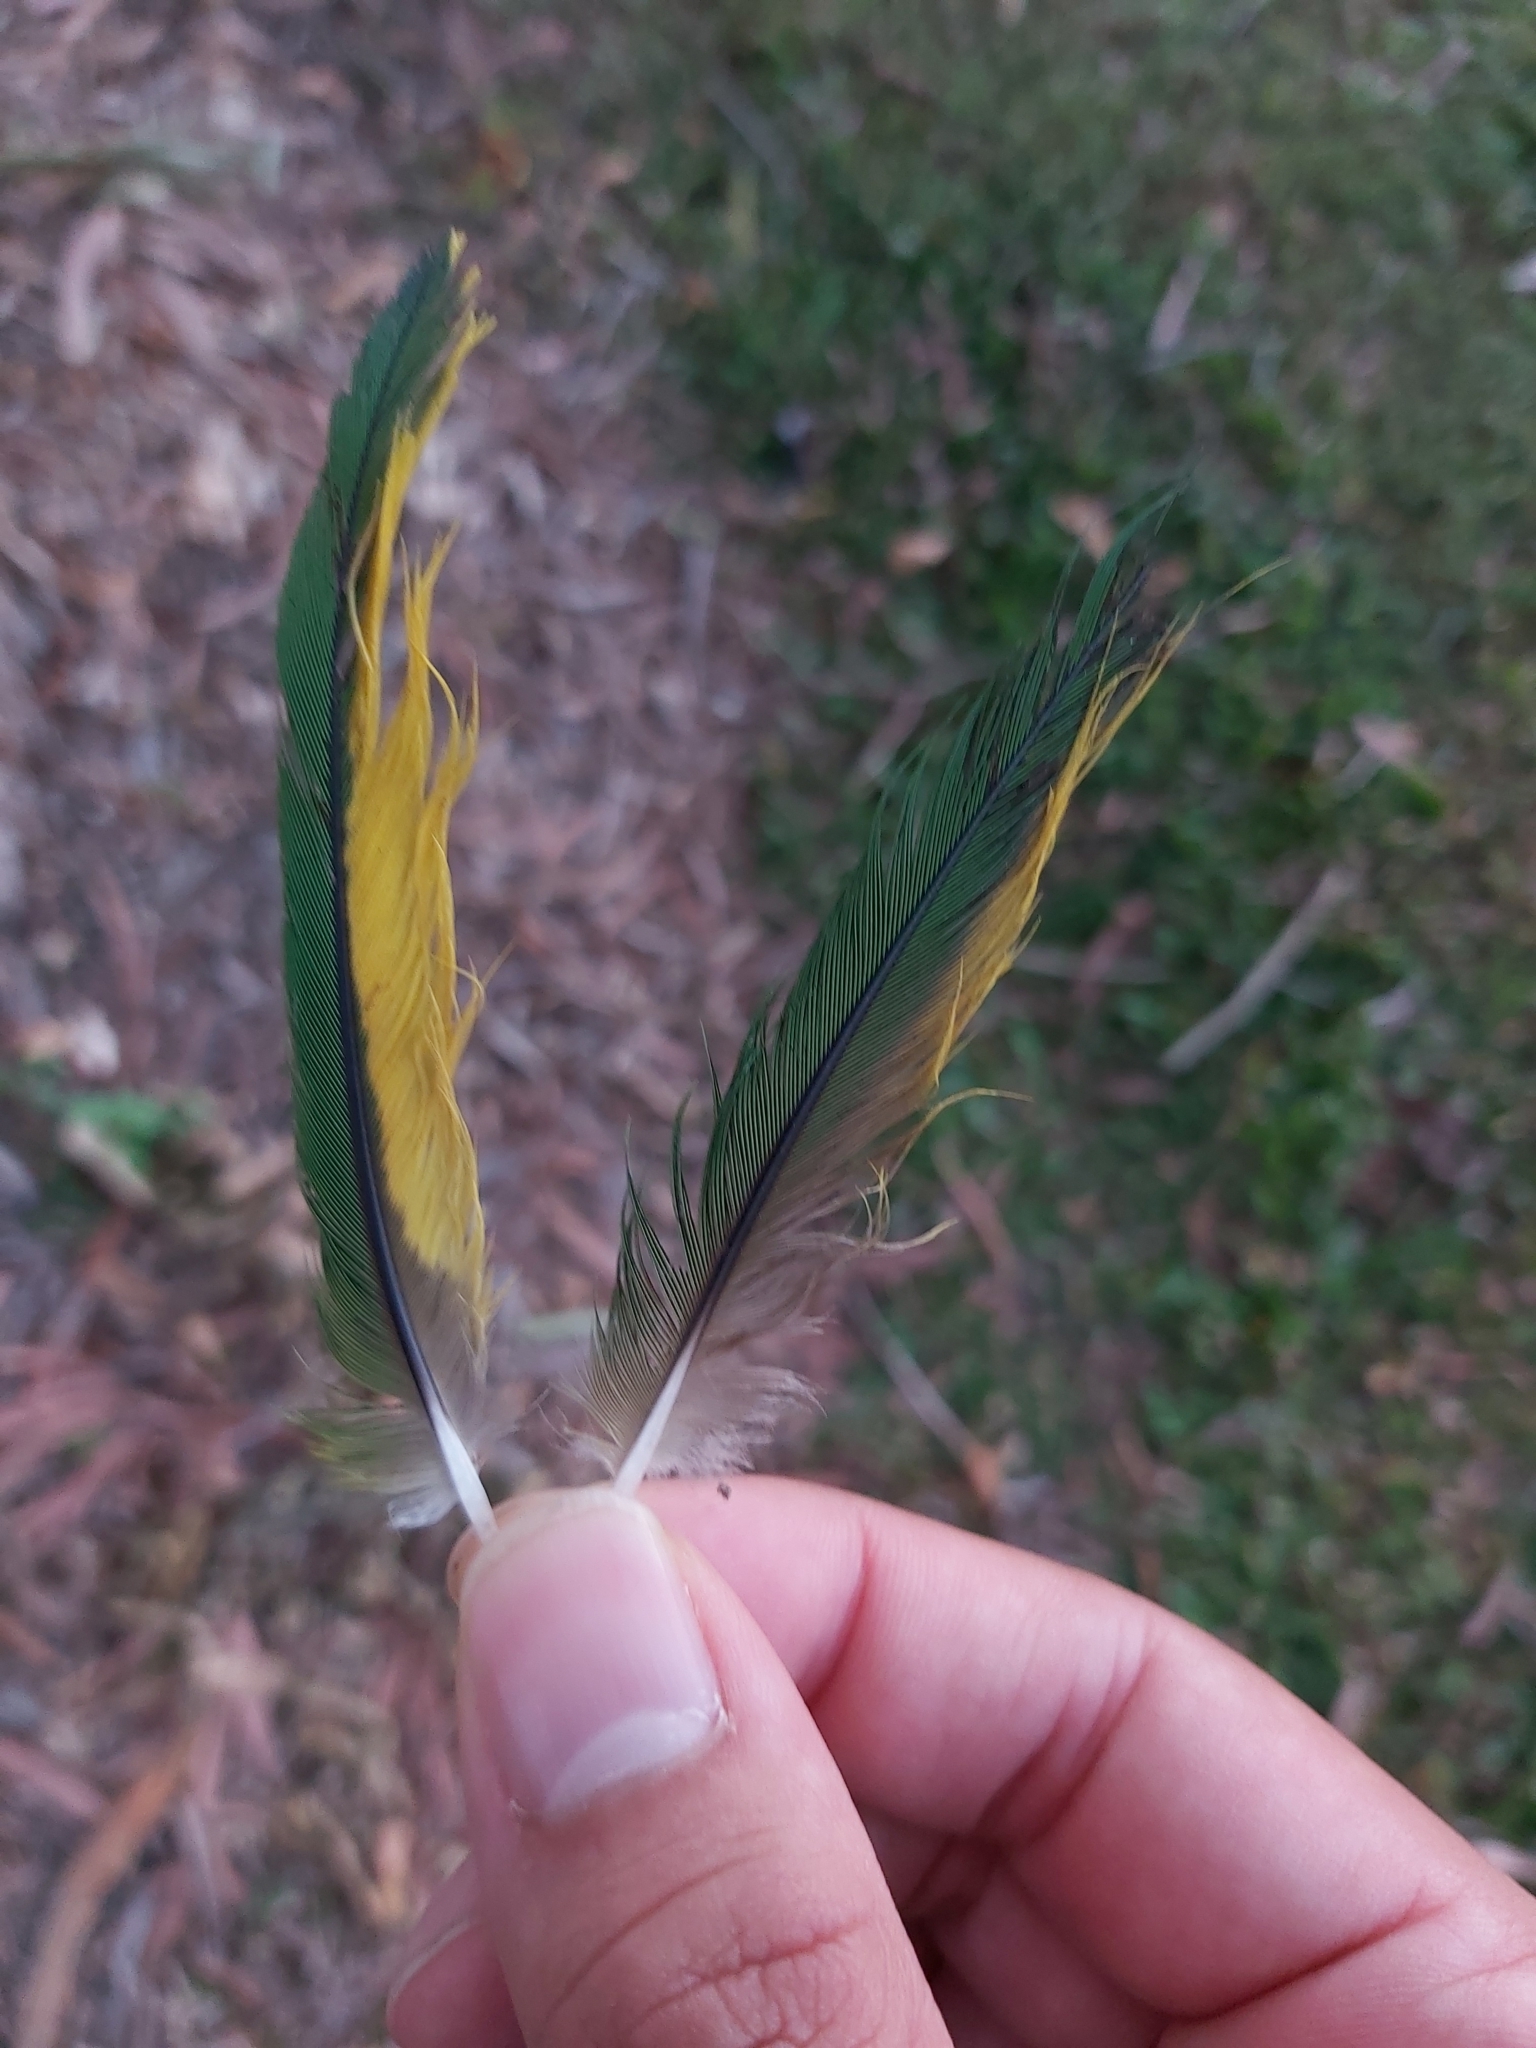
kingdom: Animalia
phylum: Chordata
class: Aves
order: Psittaciformes
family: Psittacidae
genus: Trichoglossus
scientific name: Trichoglossus haematodus
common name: Coconut lorikeet
